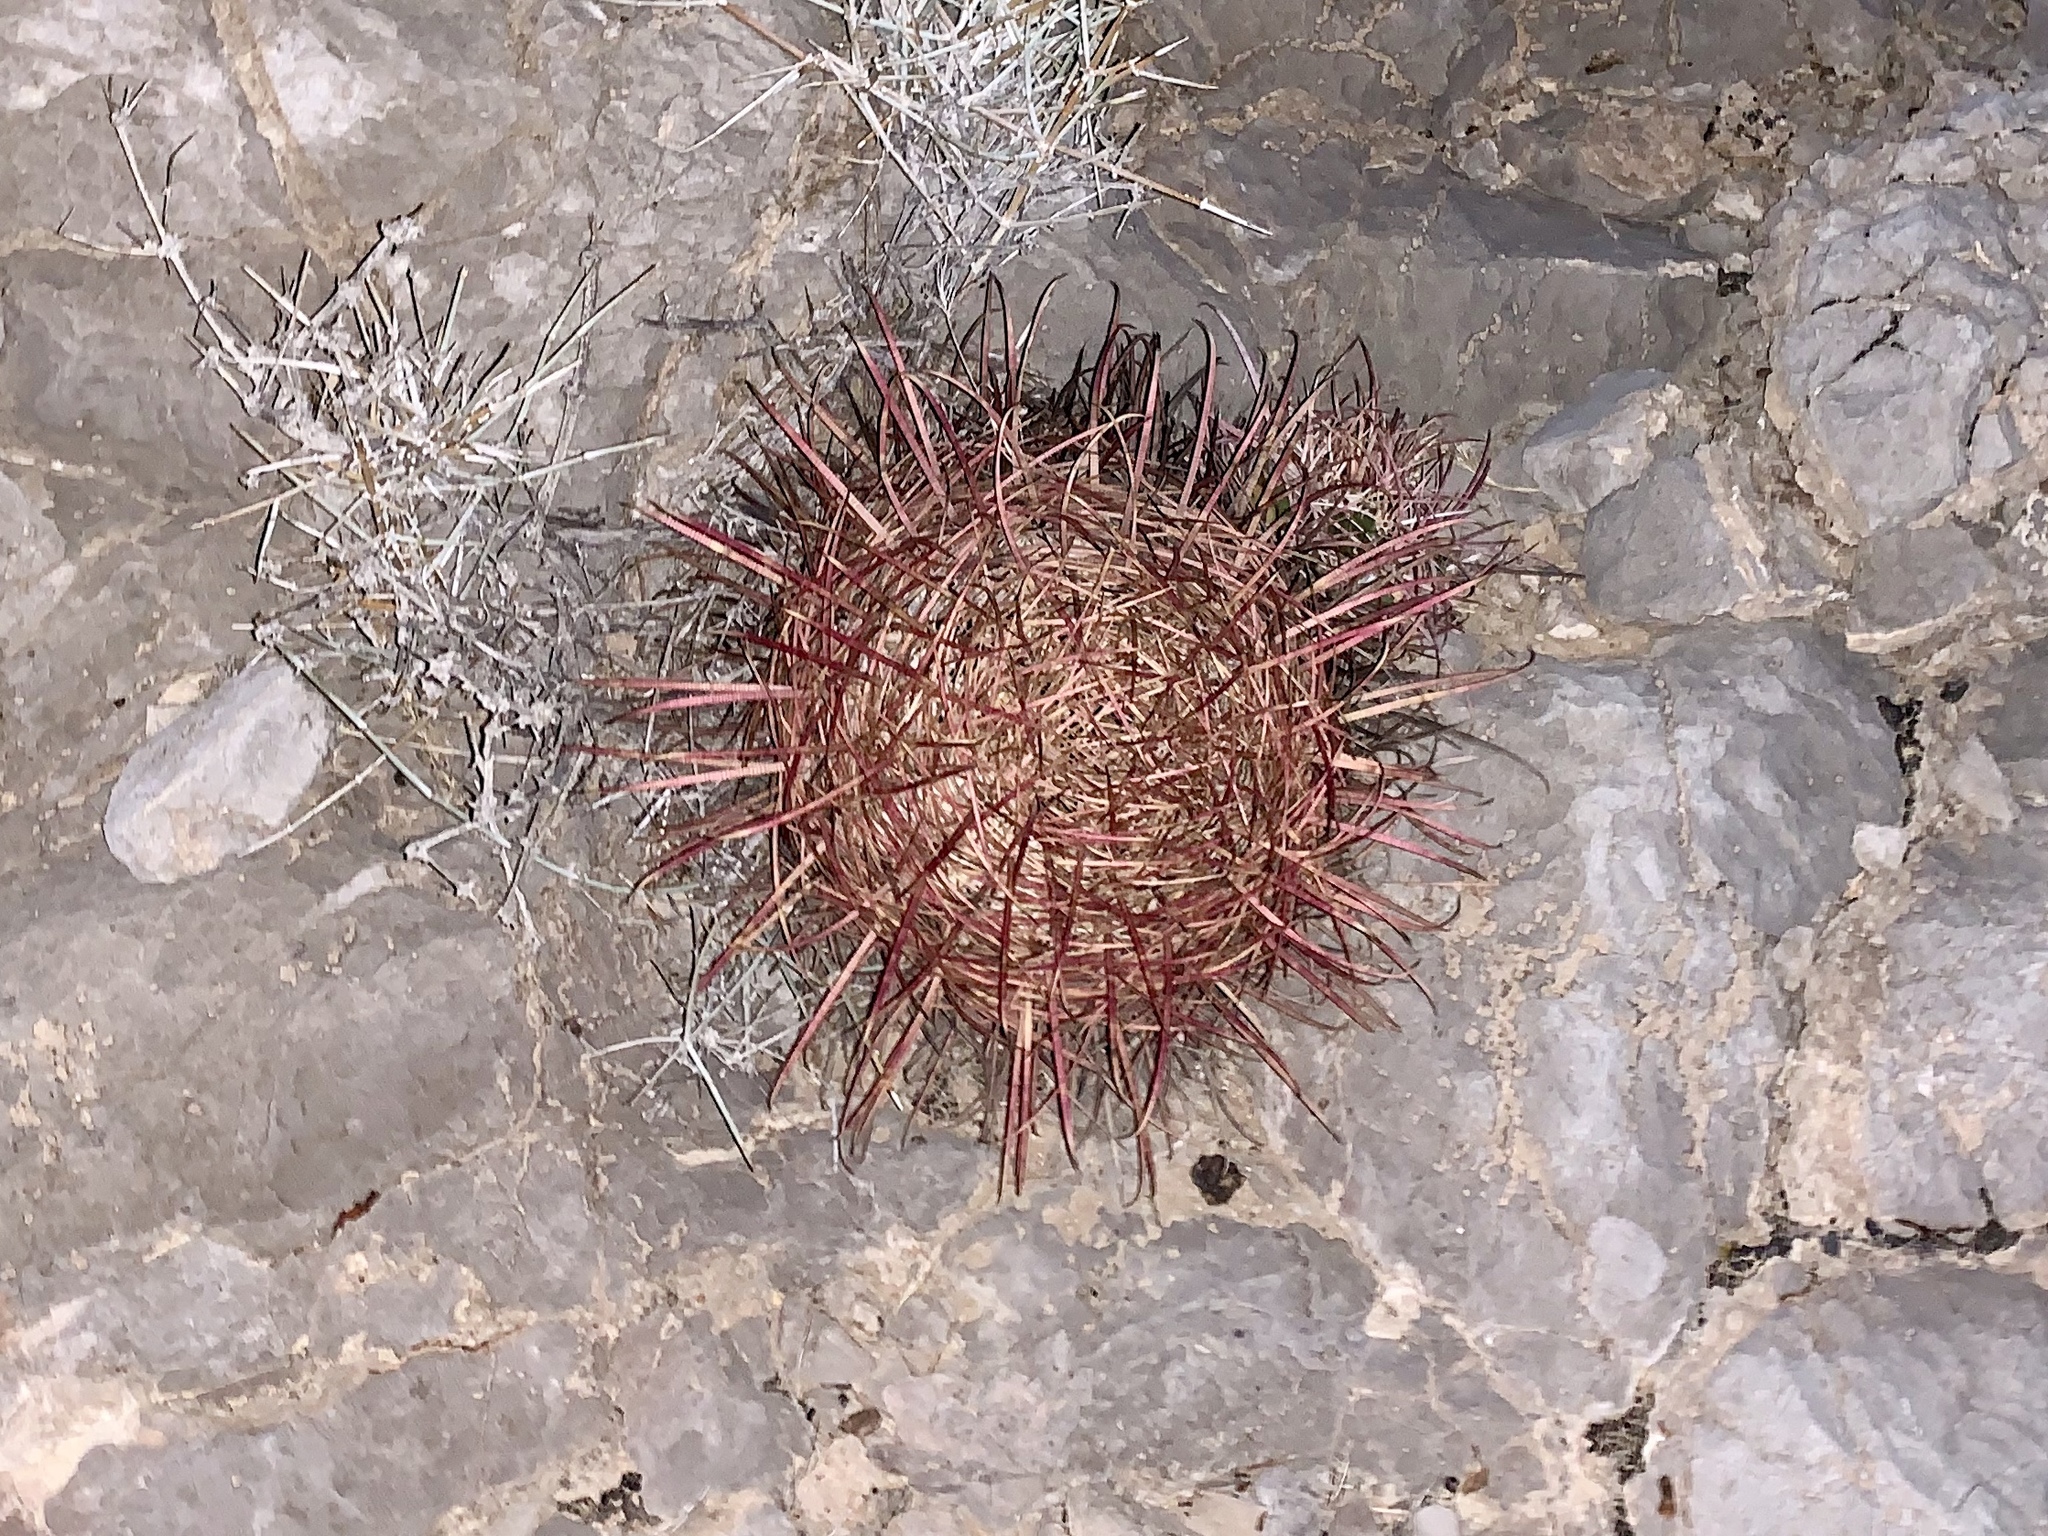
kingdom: Plantae
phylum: Tracheophyta
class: Magnoliopsida
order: Caryophyllales
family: Cactaceae
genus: Ferocactus
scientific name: Ferocactus cylindraceus
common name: California barrel cactus
